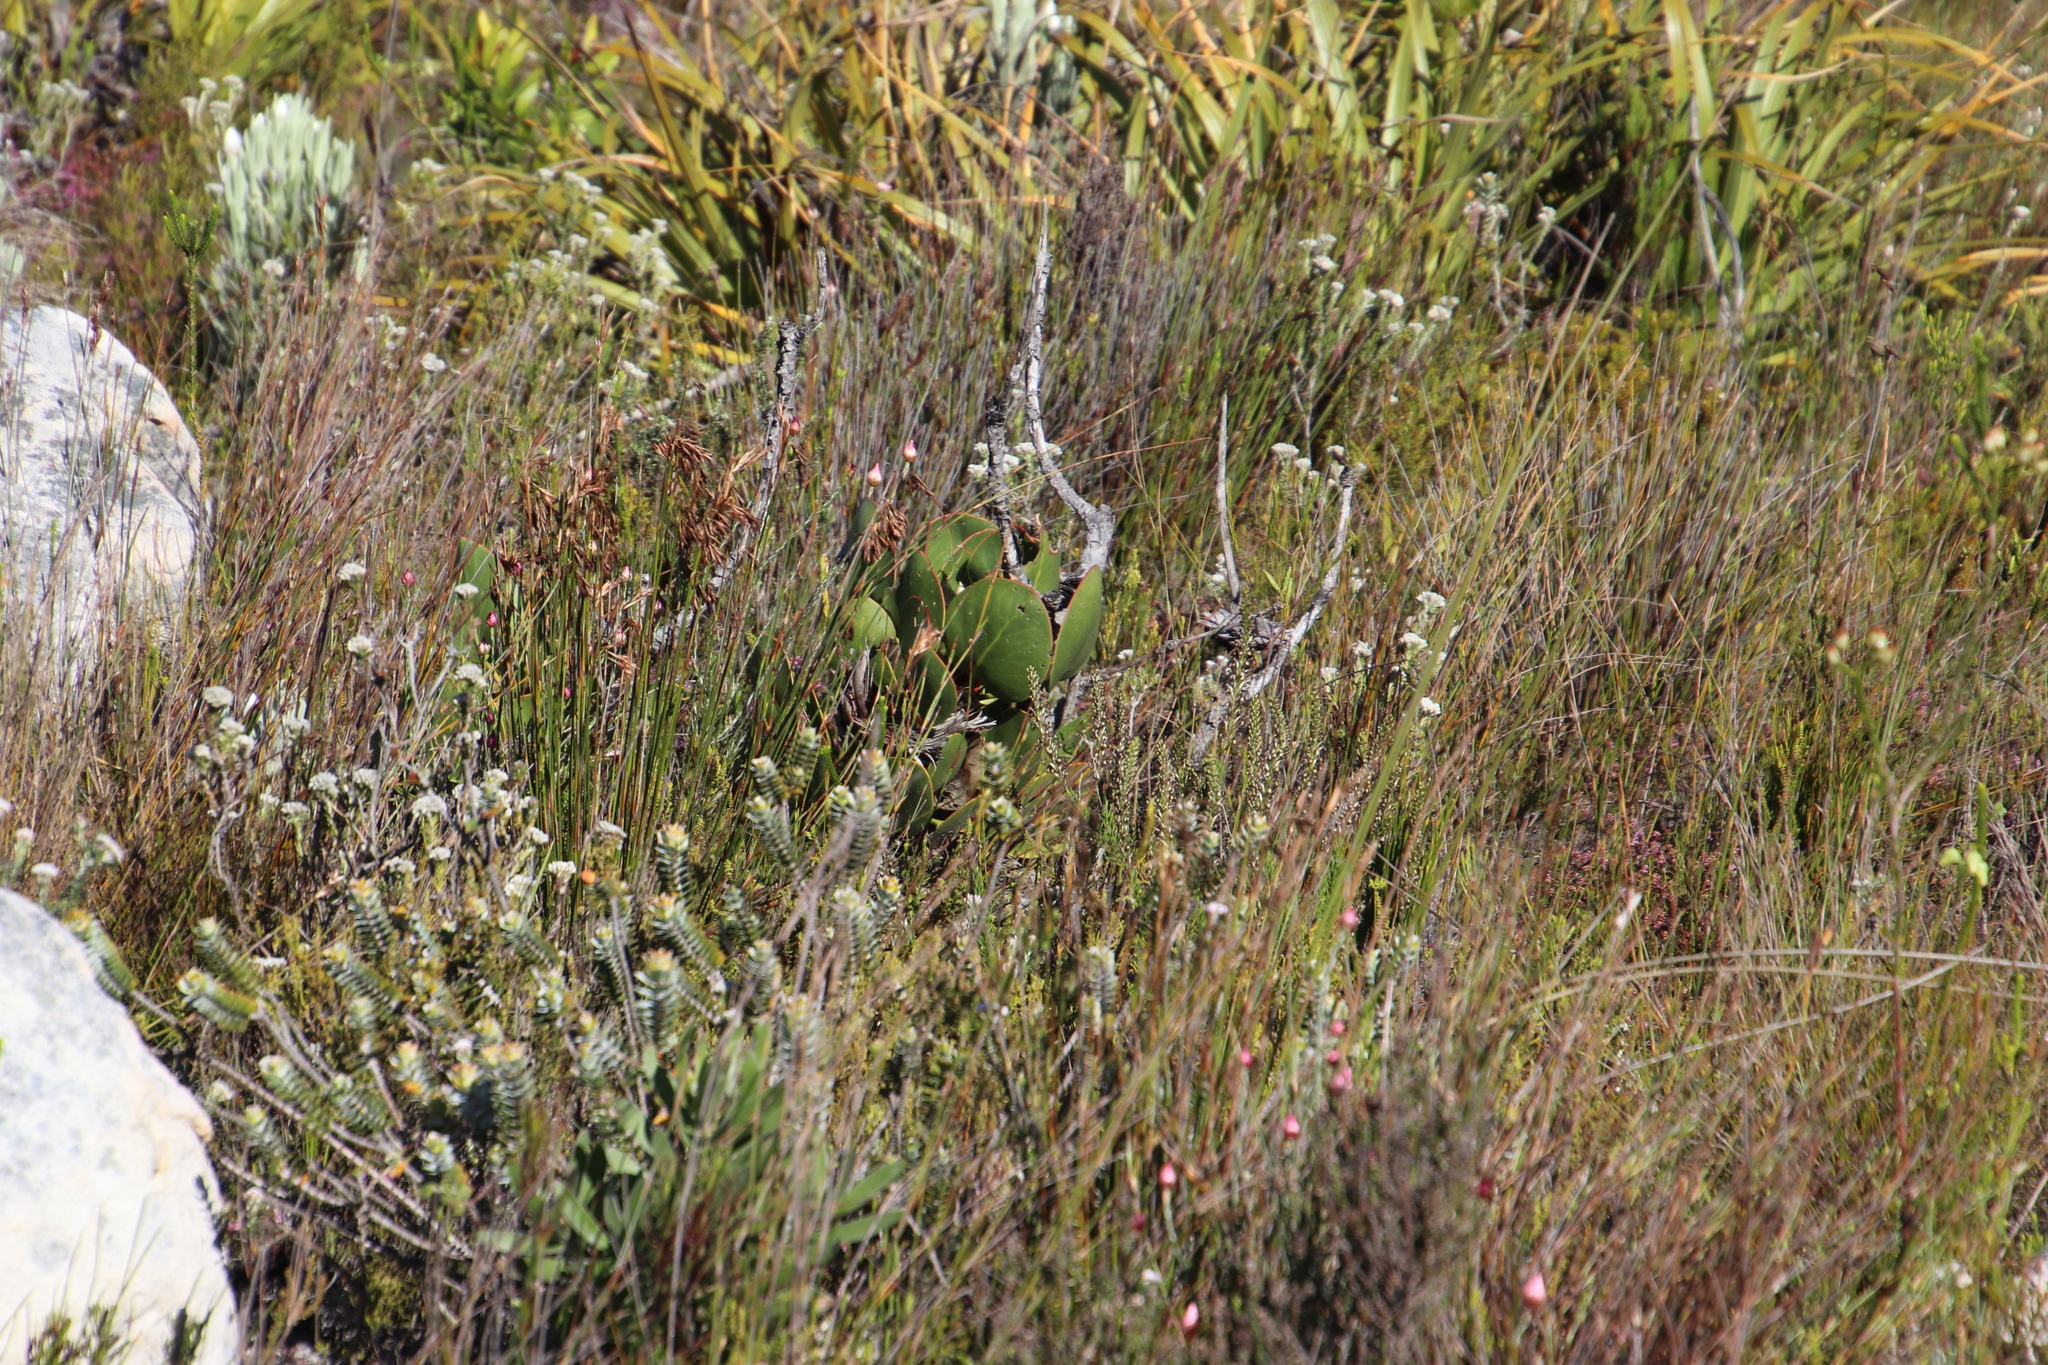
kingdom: Plantae
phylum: Tracheophyta
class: Magnoliopsida
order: Proteales
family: Proteaceae
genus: Protea
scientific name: Protea cynaroides
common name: King protea
